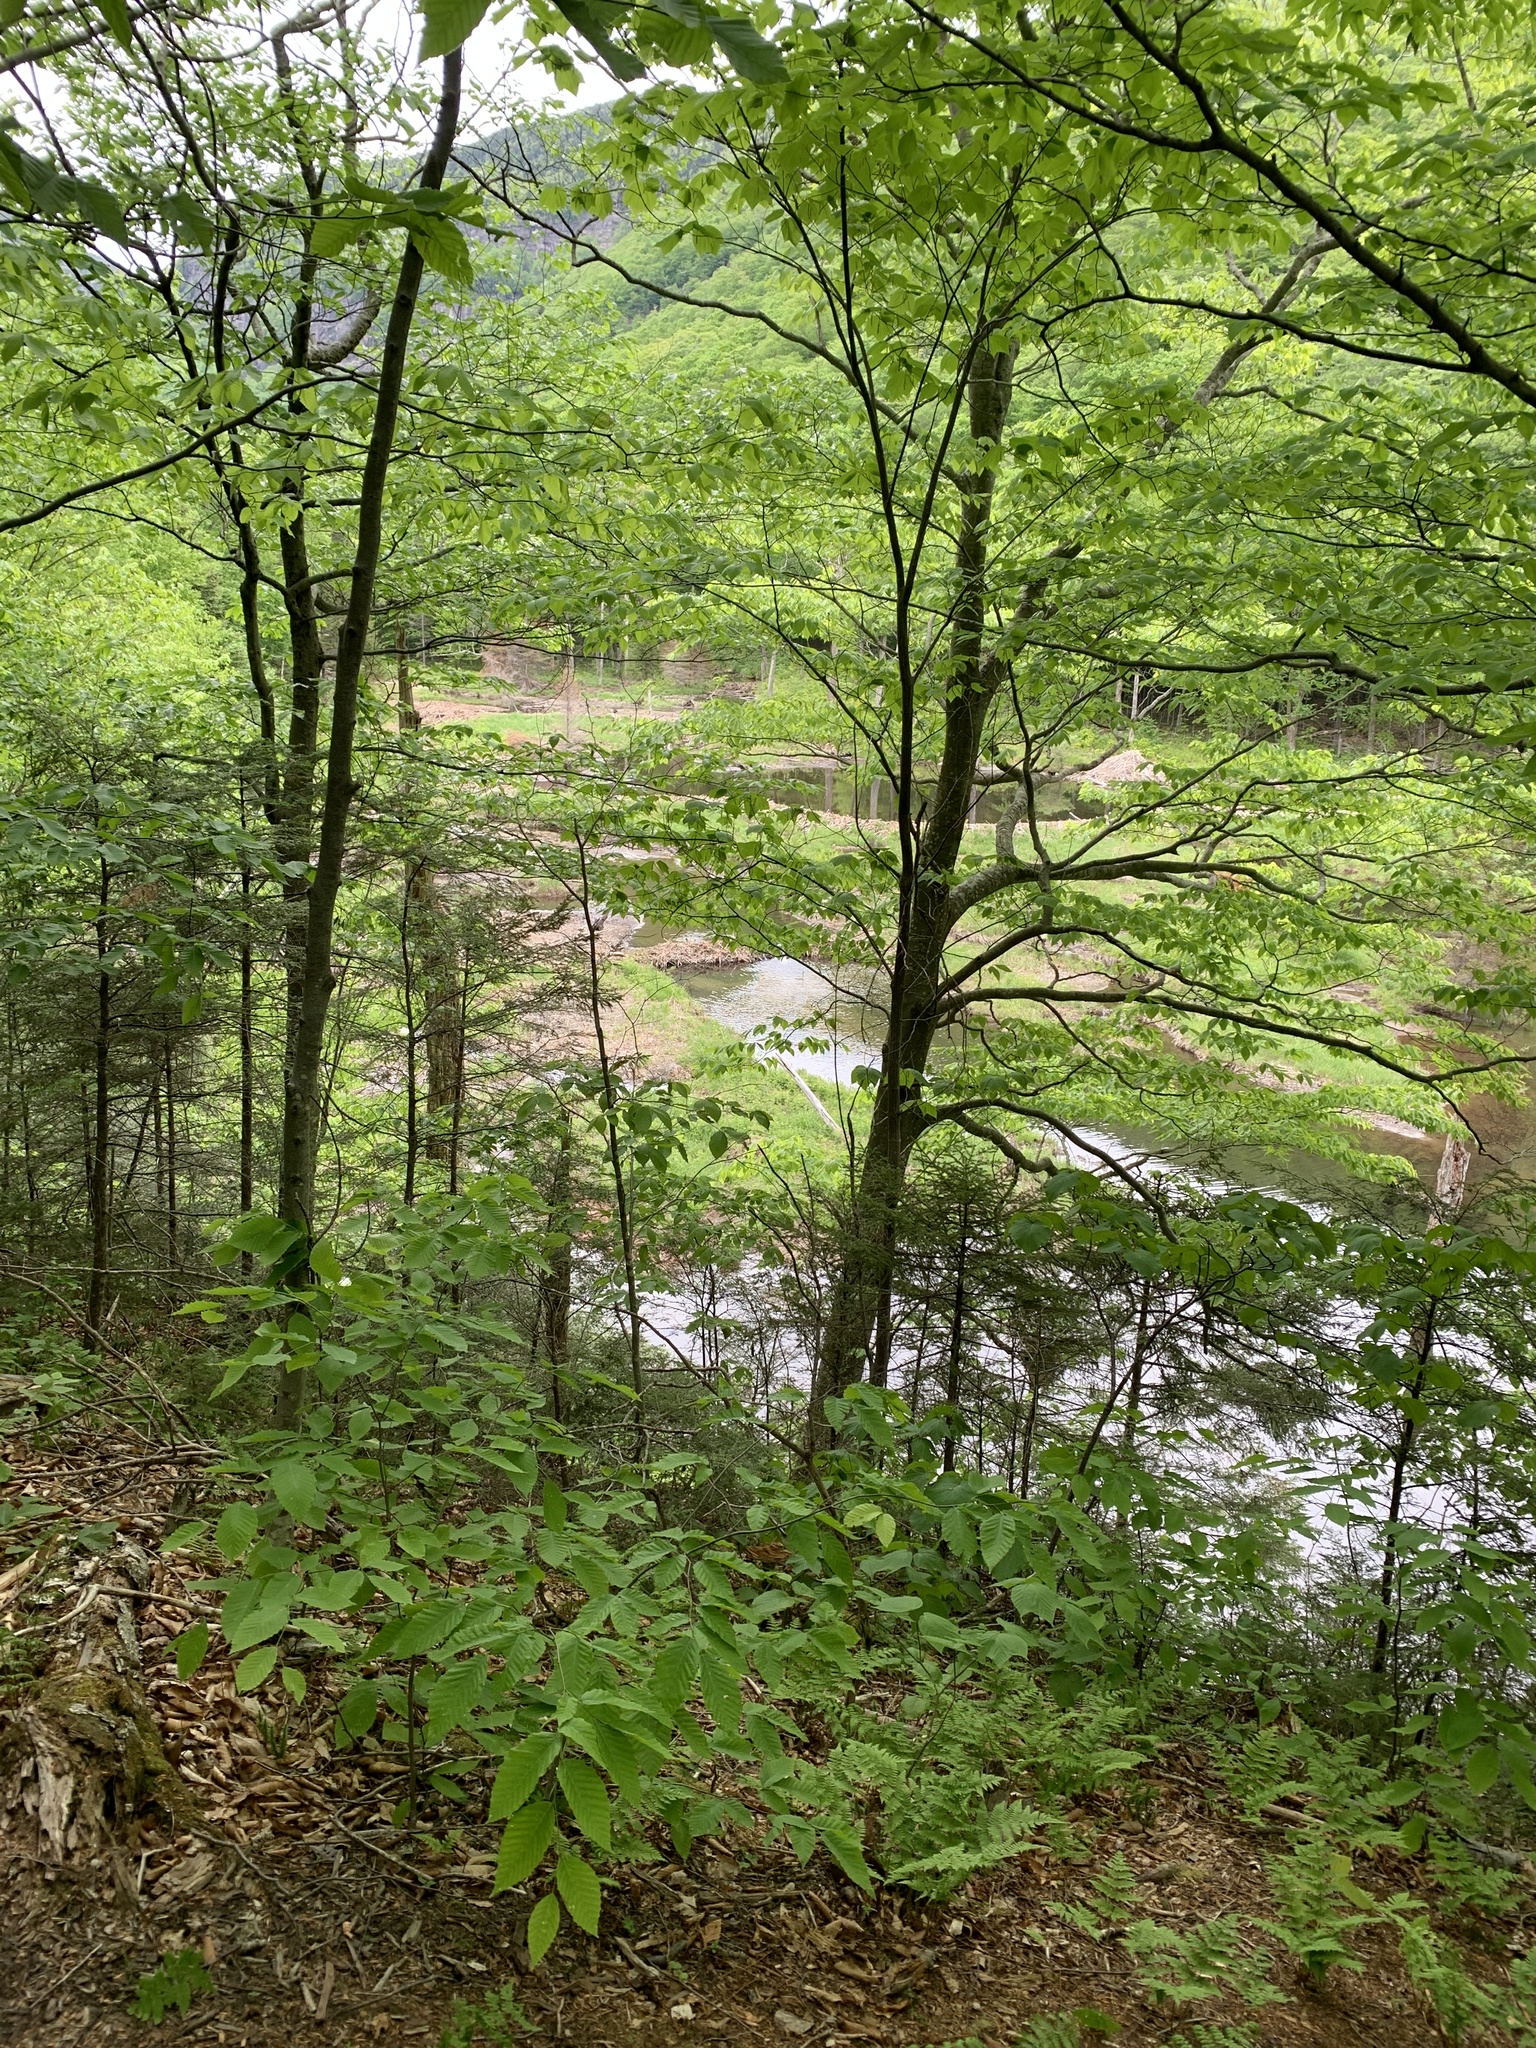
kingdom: Animalia
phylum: Chordata
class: Mammalia
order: Rodentia
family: Castoridae
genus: Castor
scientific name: Castor canadensis
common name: American beaver
